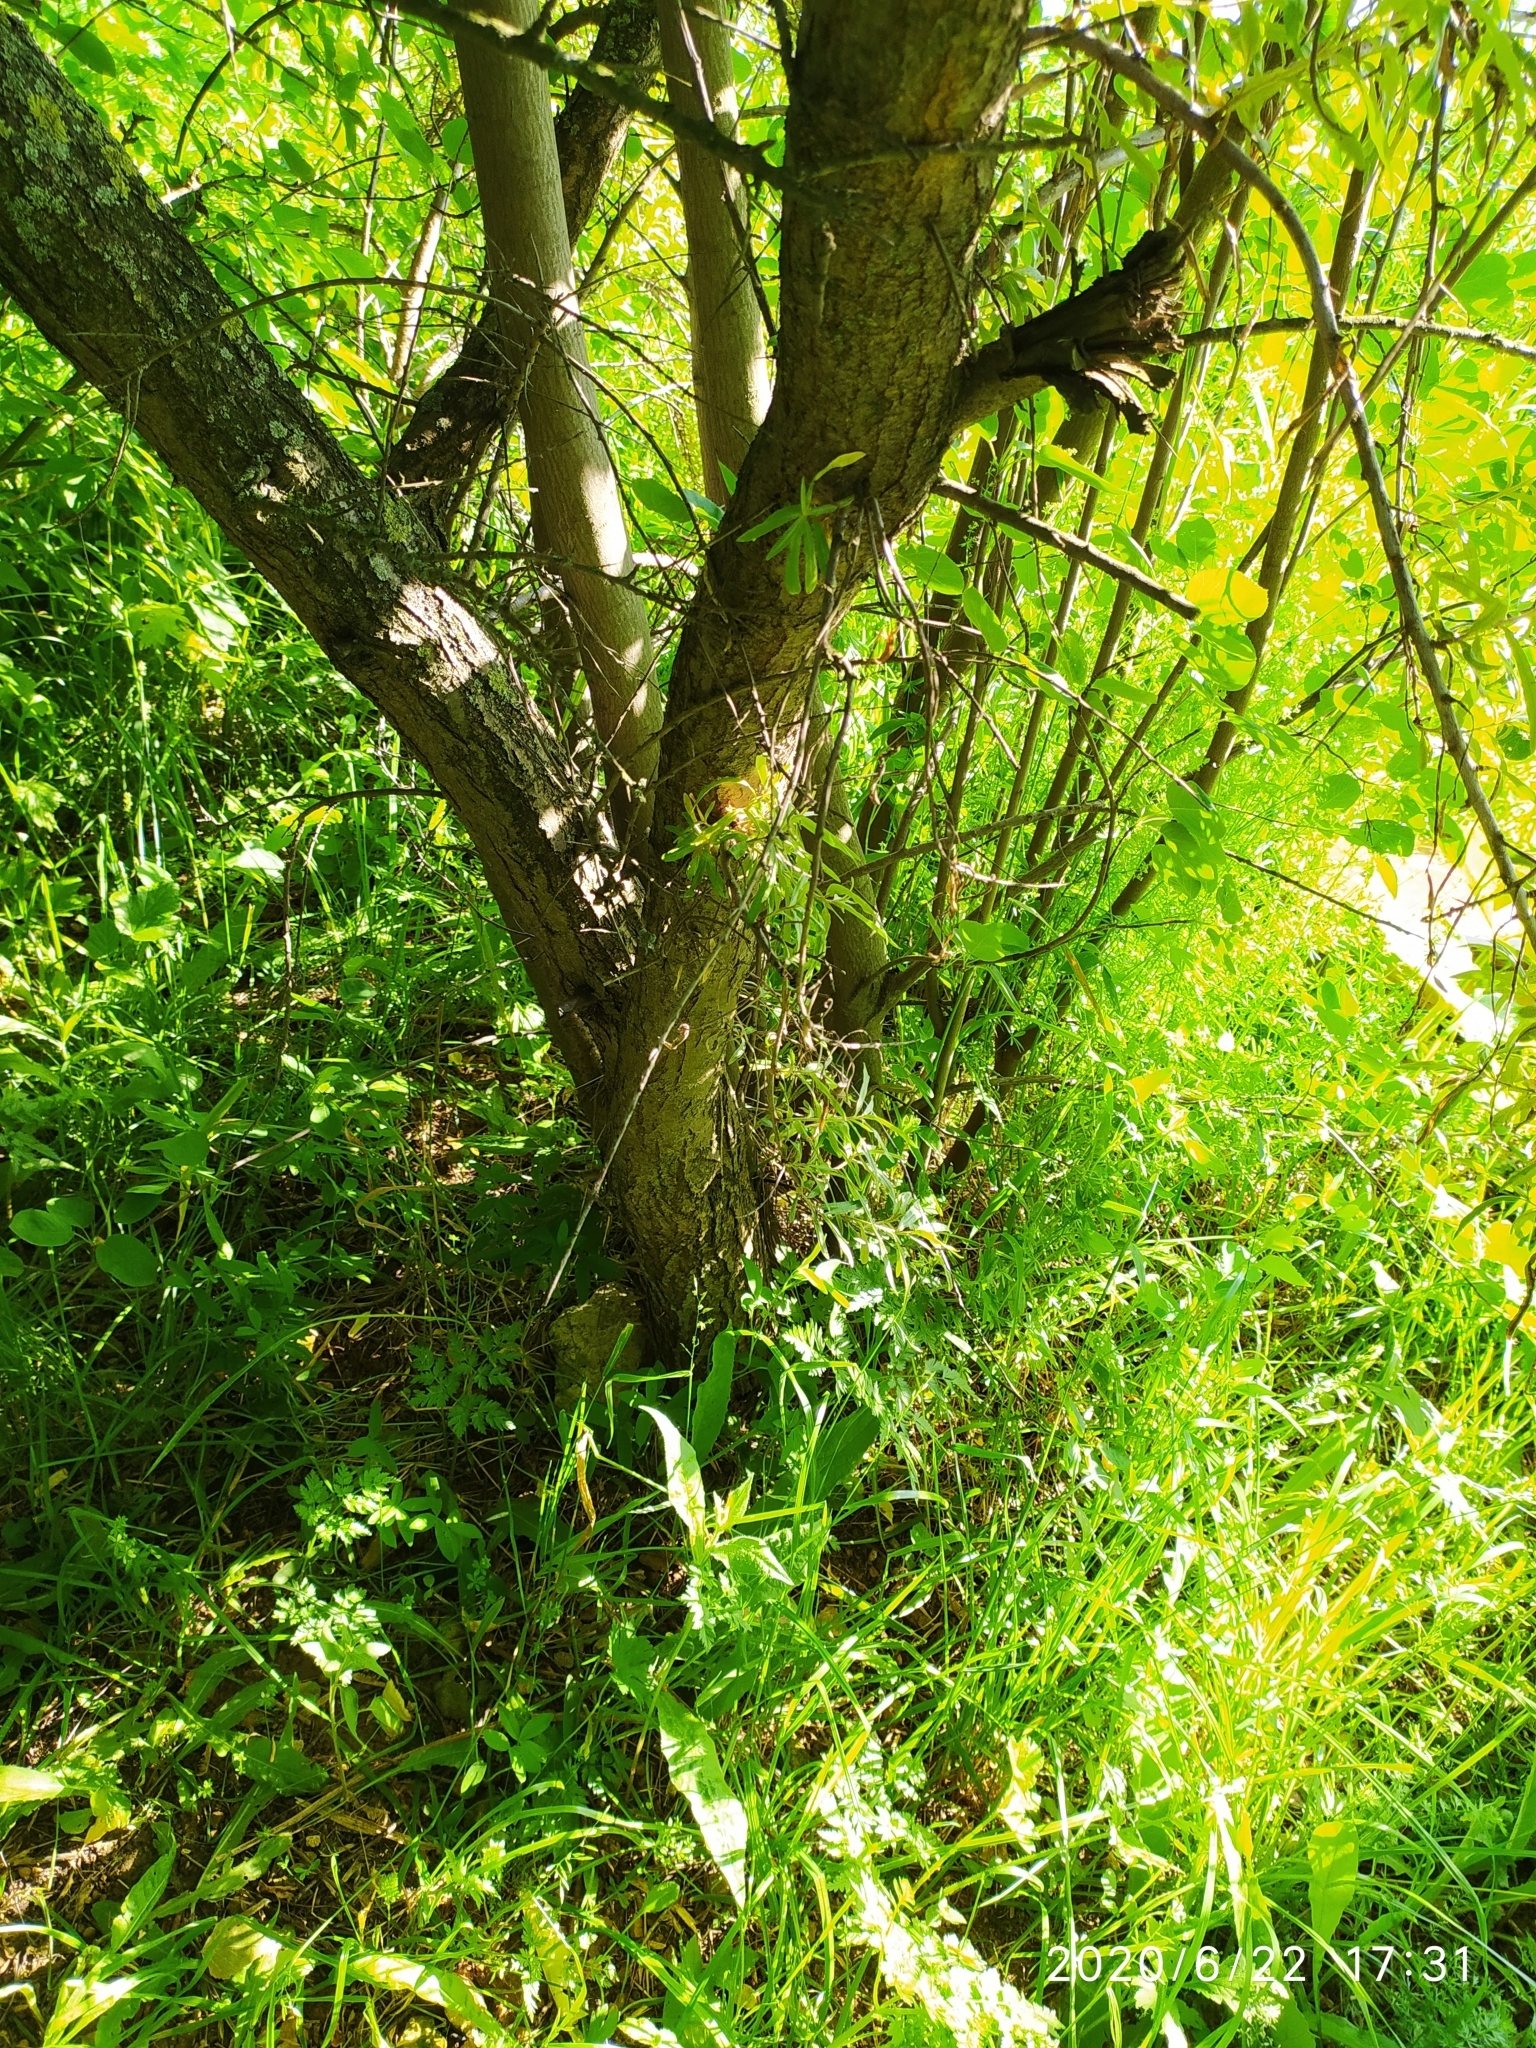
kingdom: Plantae
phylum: Tracheophyta
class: Magnoliopsida
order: Rosales
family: Elaeagnaceae
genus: Hippophae
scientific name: Hippophae rhamnoides
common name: Sea-buckthorn
